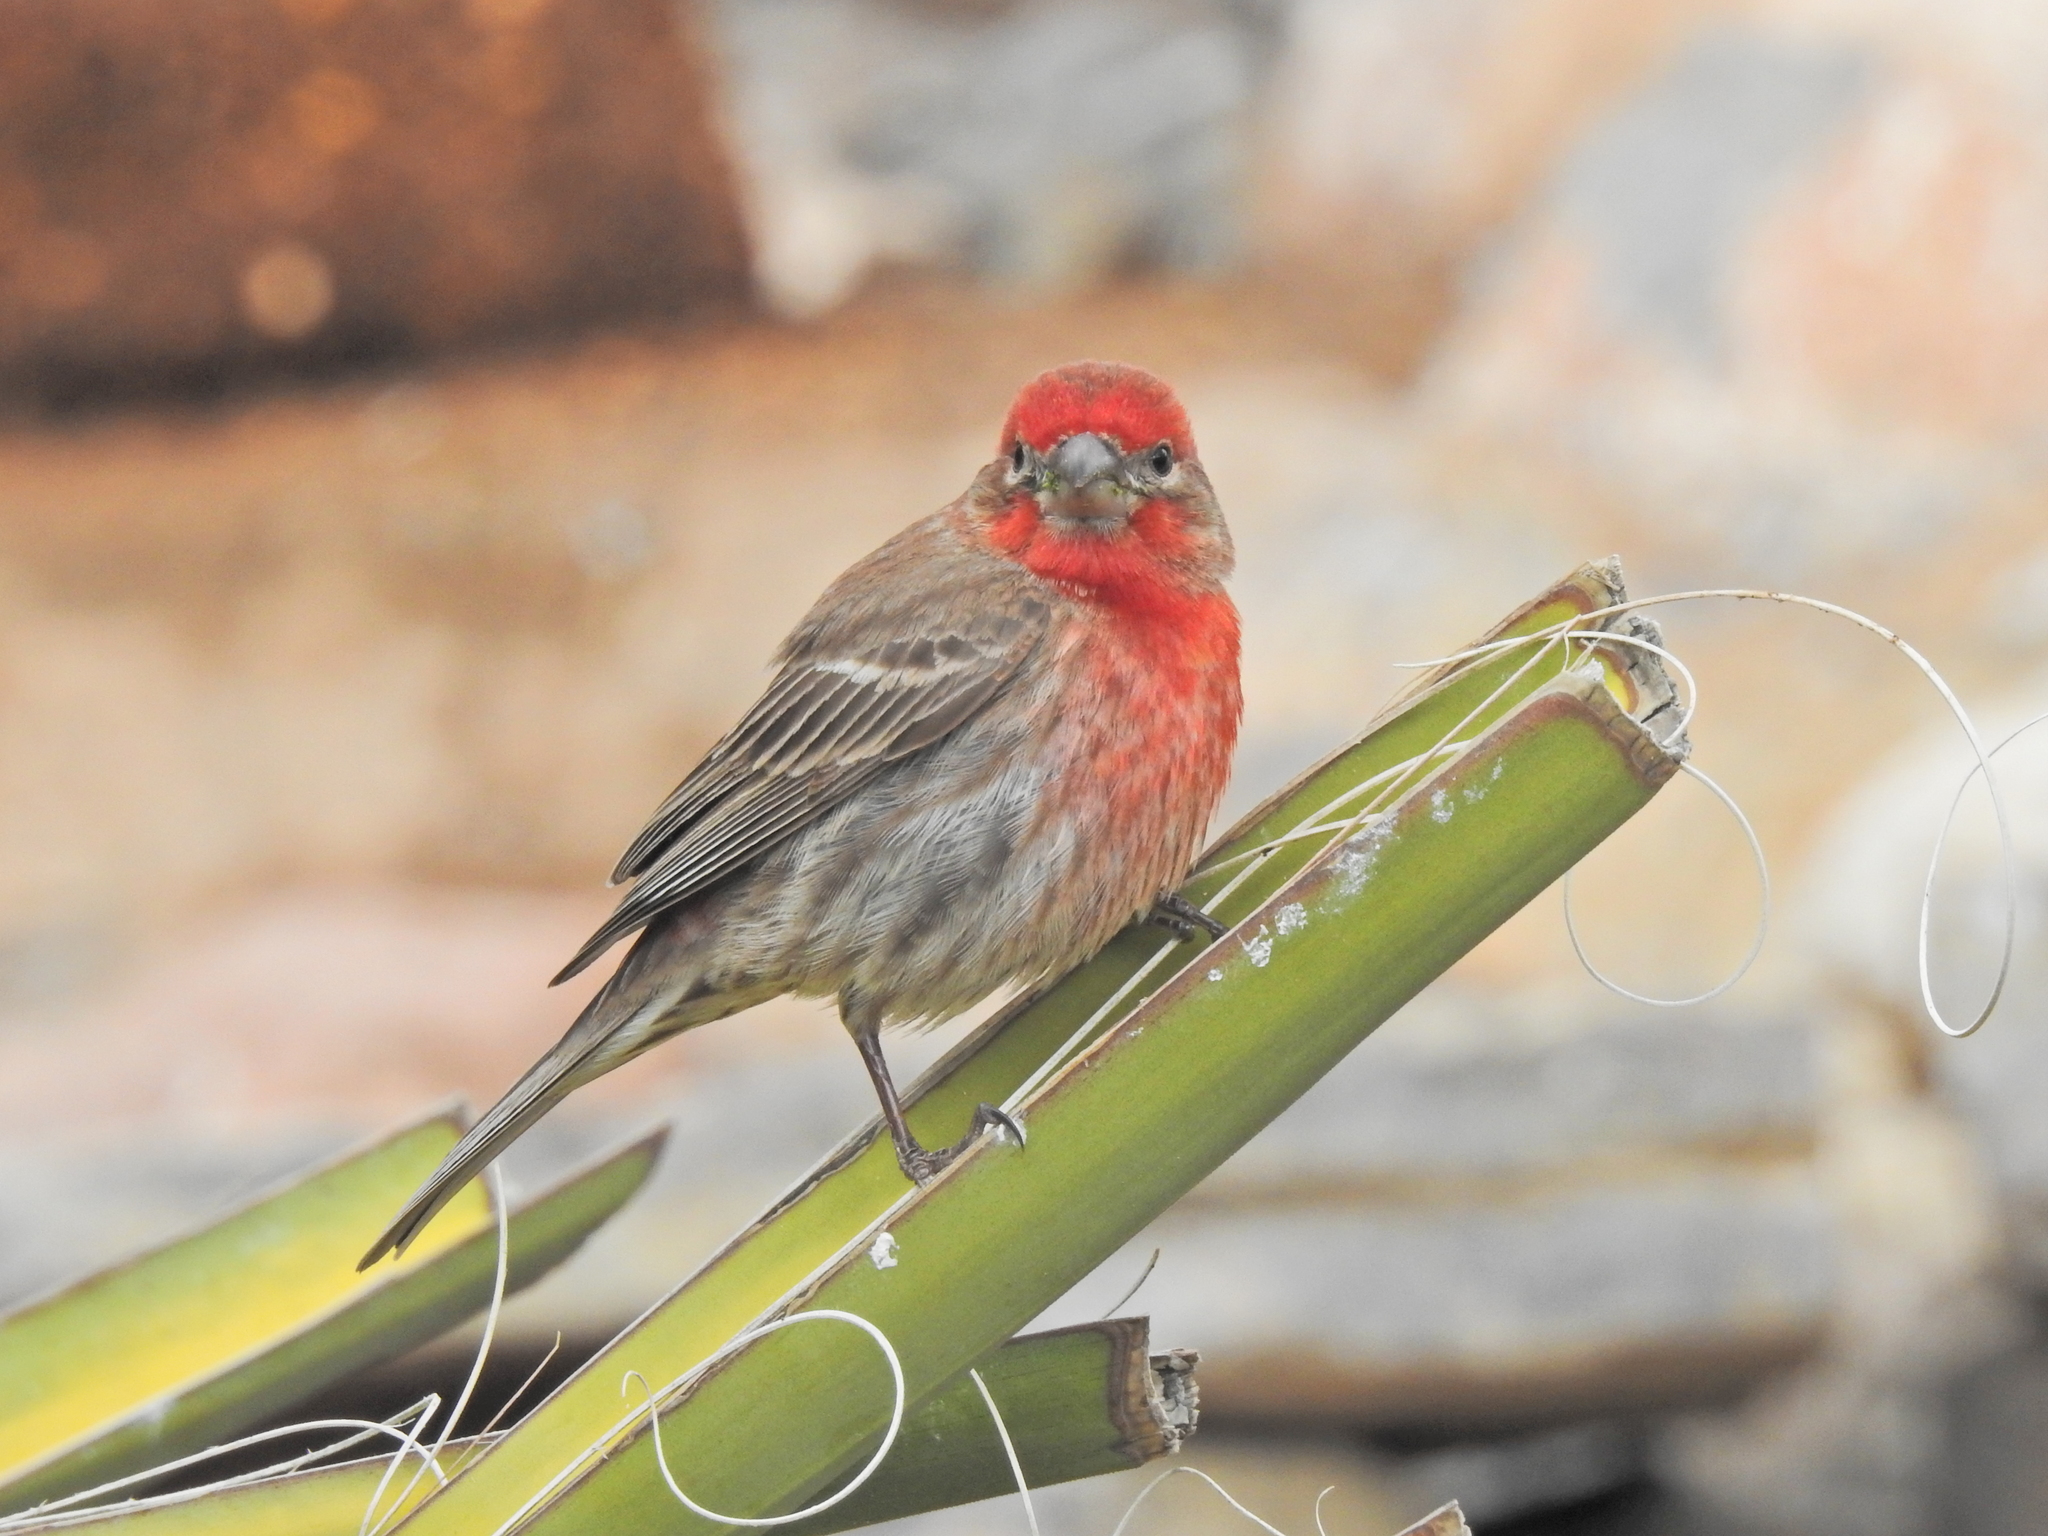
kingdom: Animalia
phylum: Chordata
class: Aves
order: Passeriformes
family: Fringillidae
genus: Haemorhous
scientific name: Haemorhous mexicanus
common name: House finch
